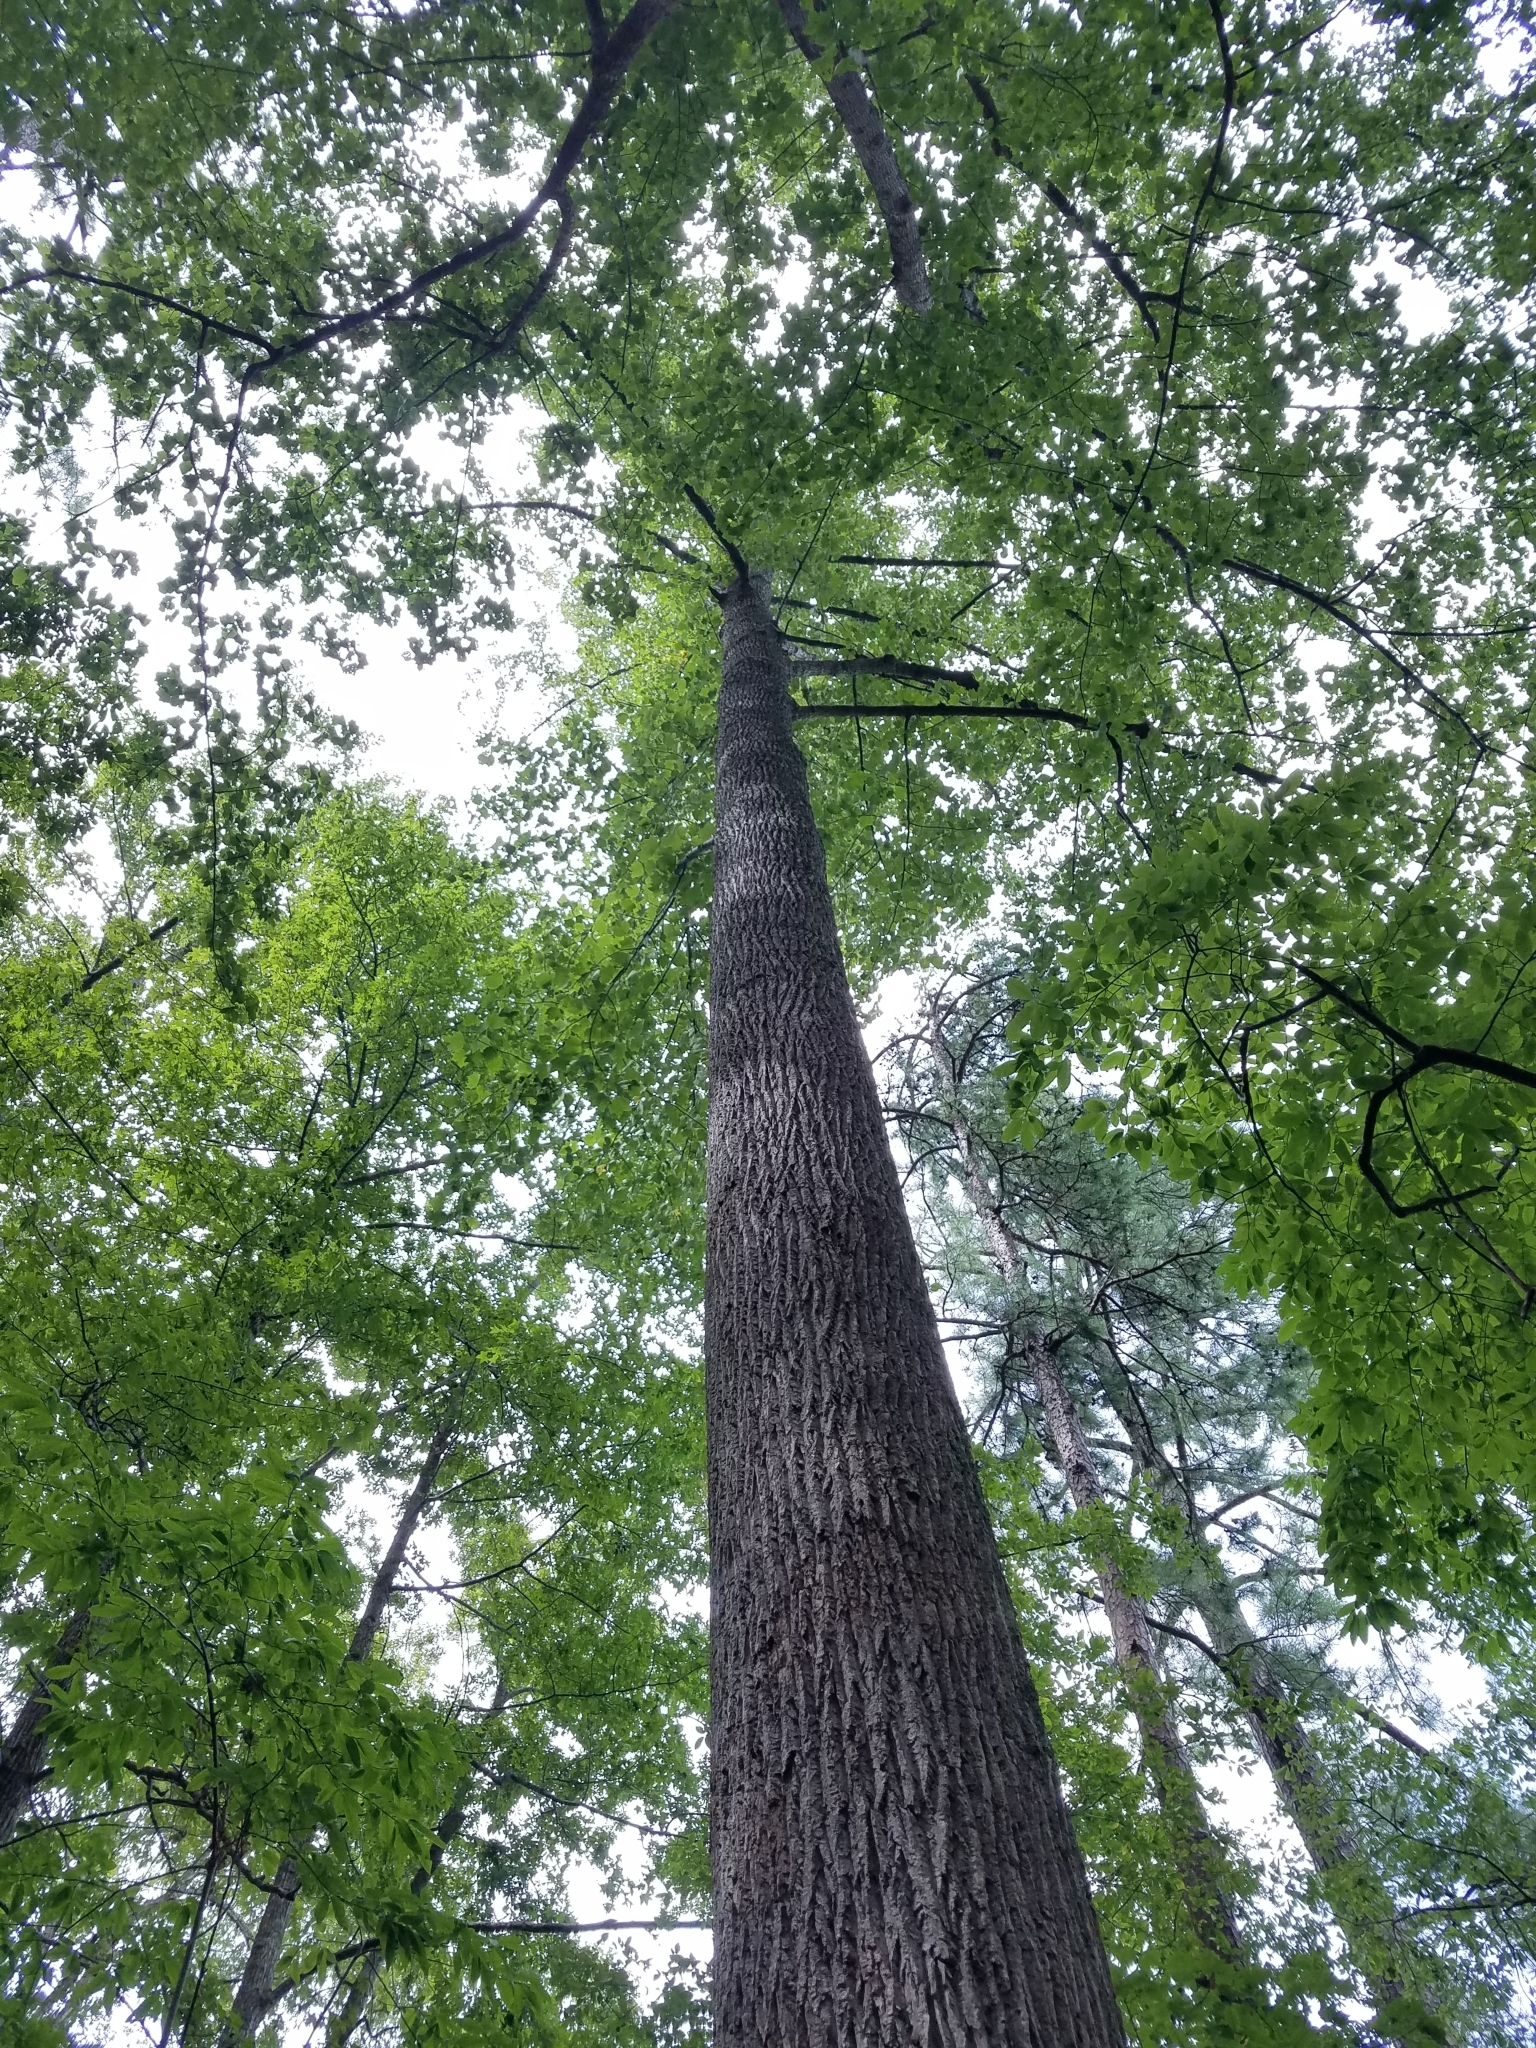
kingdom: Plantae
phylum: Tracheophyta
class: Magnoliopsida
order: Magnoliales
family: Magnoliaceae
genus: Liriodendron
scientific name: Liriodendron tulipifera
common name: Tulip tree
